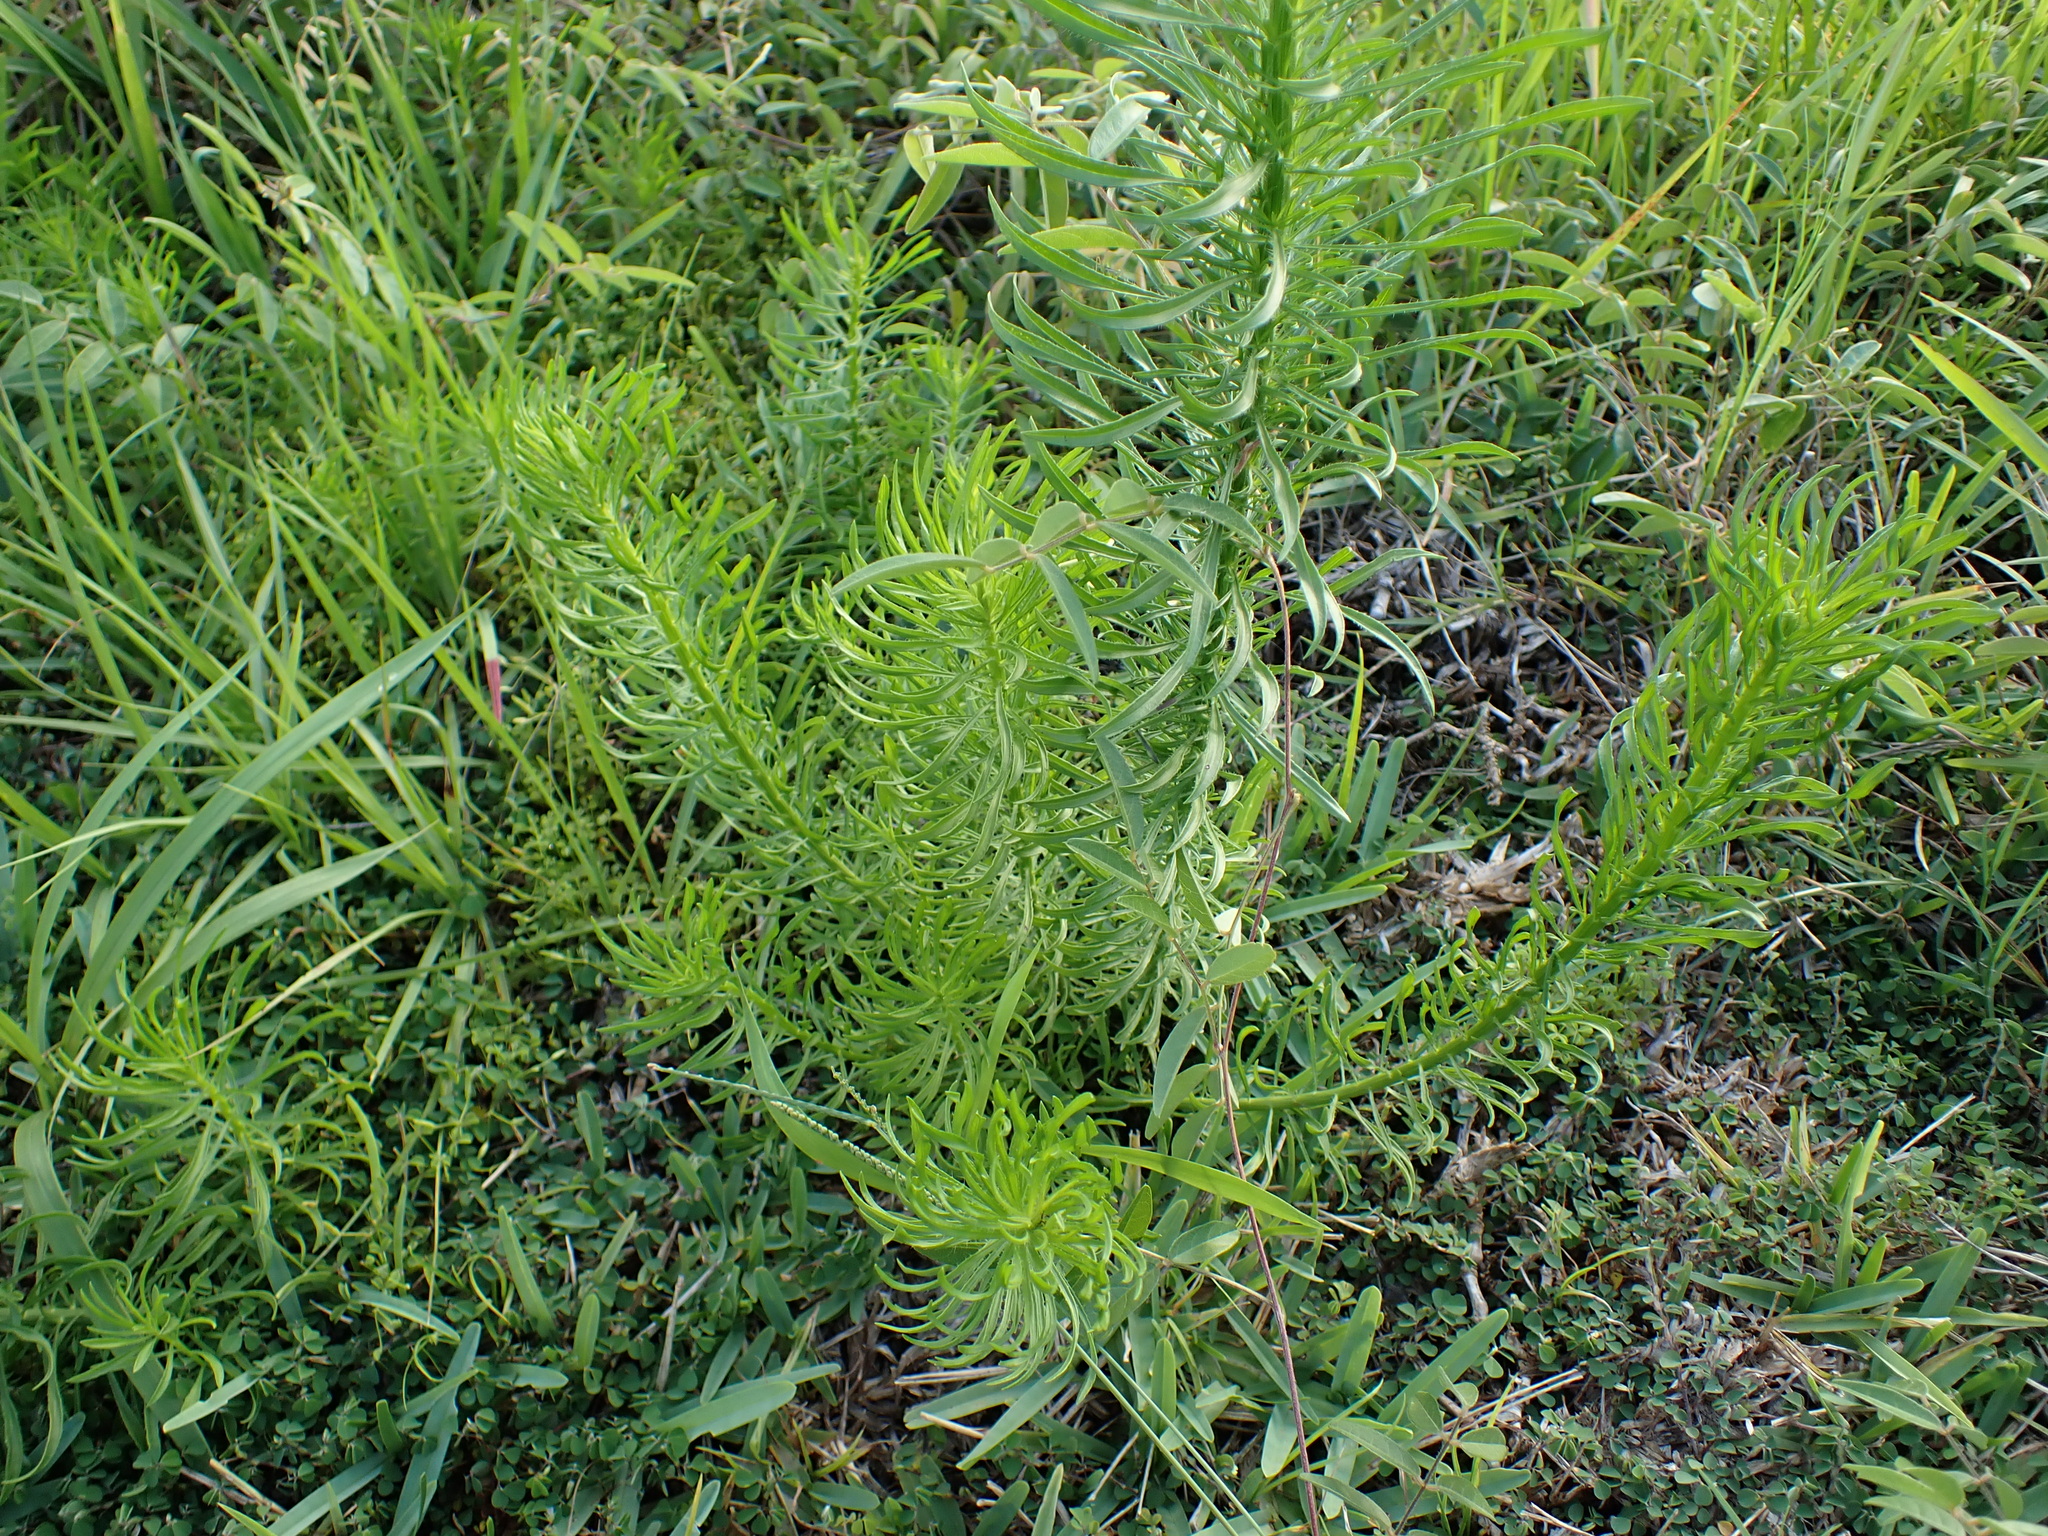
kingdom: Plantae
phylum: Tracheophyta
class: Magnoliopsida
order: Asterales
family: Asteraceae
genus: Erigeron
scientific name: Erigeron canadensis
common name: Canadian fleabane
